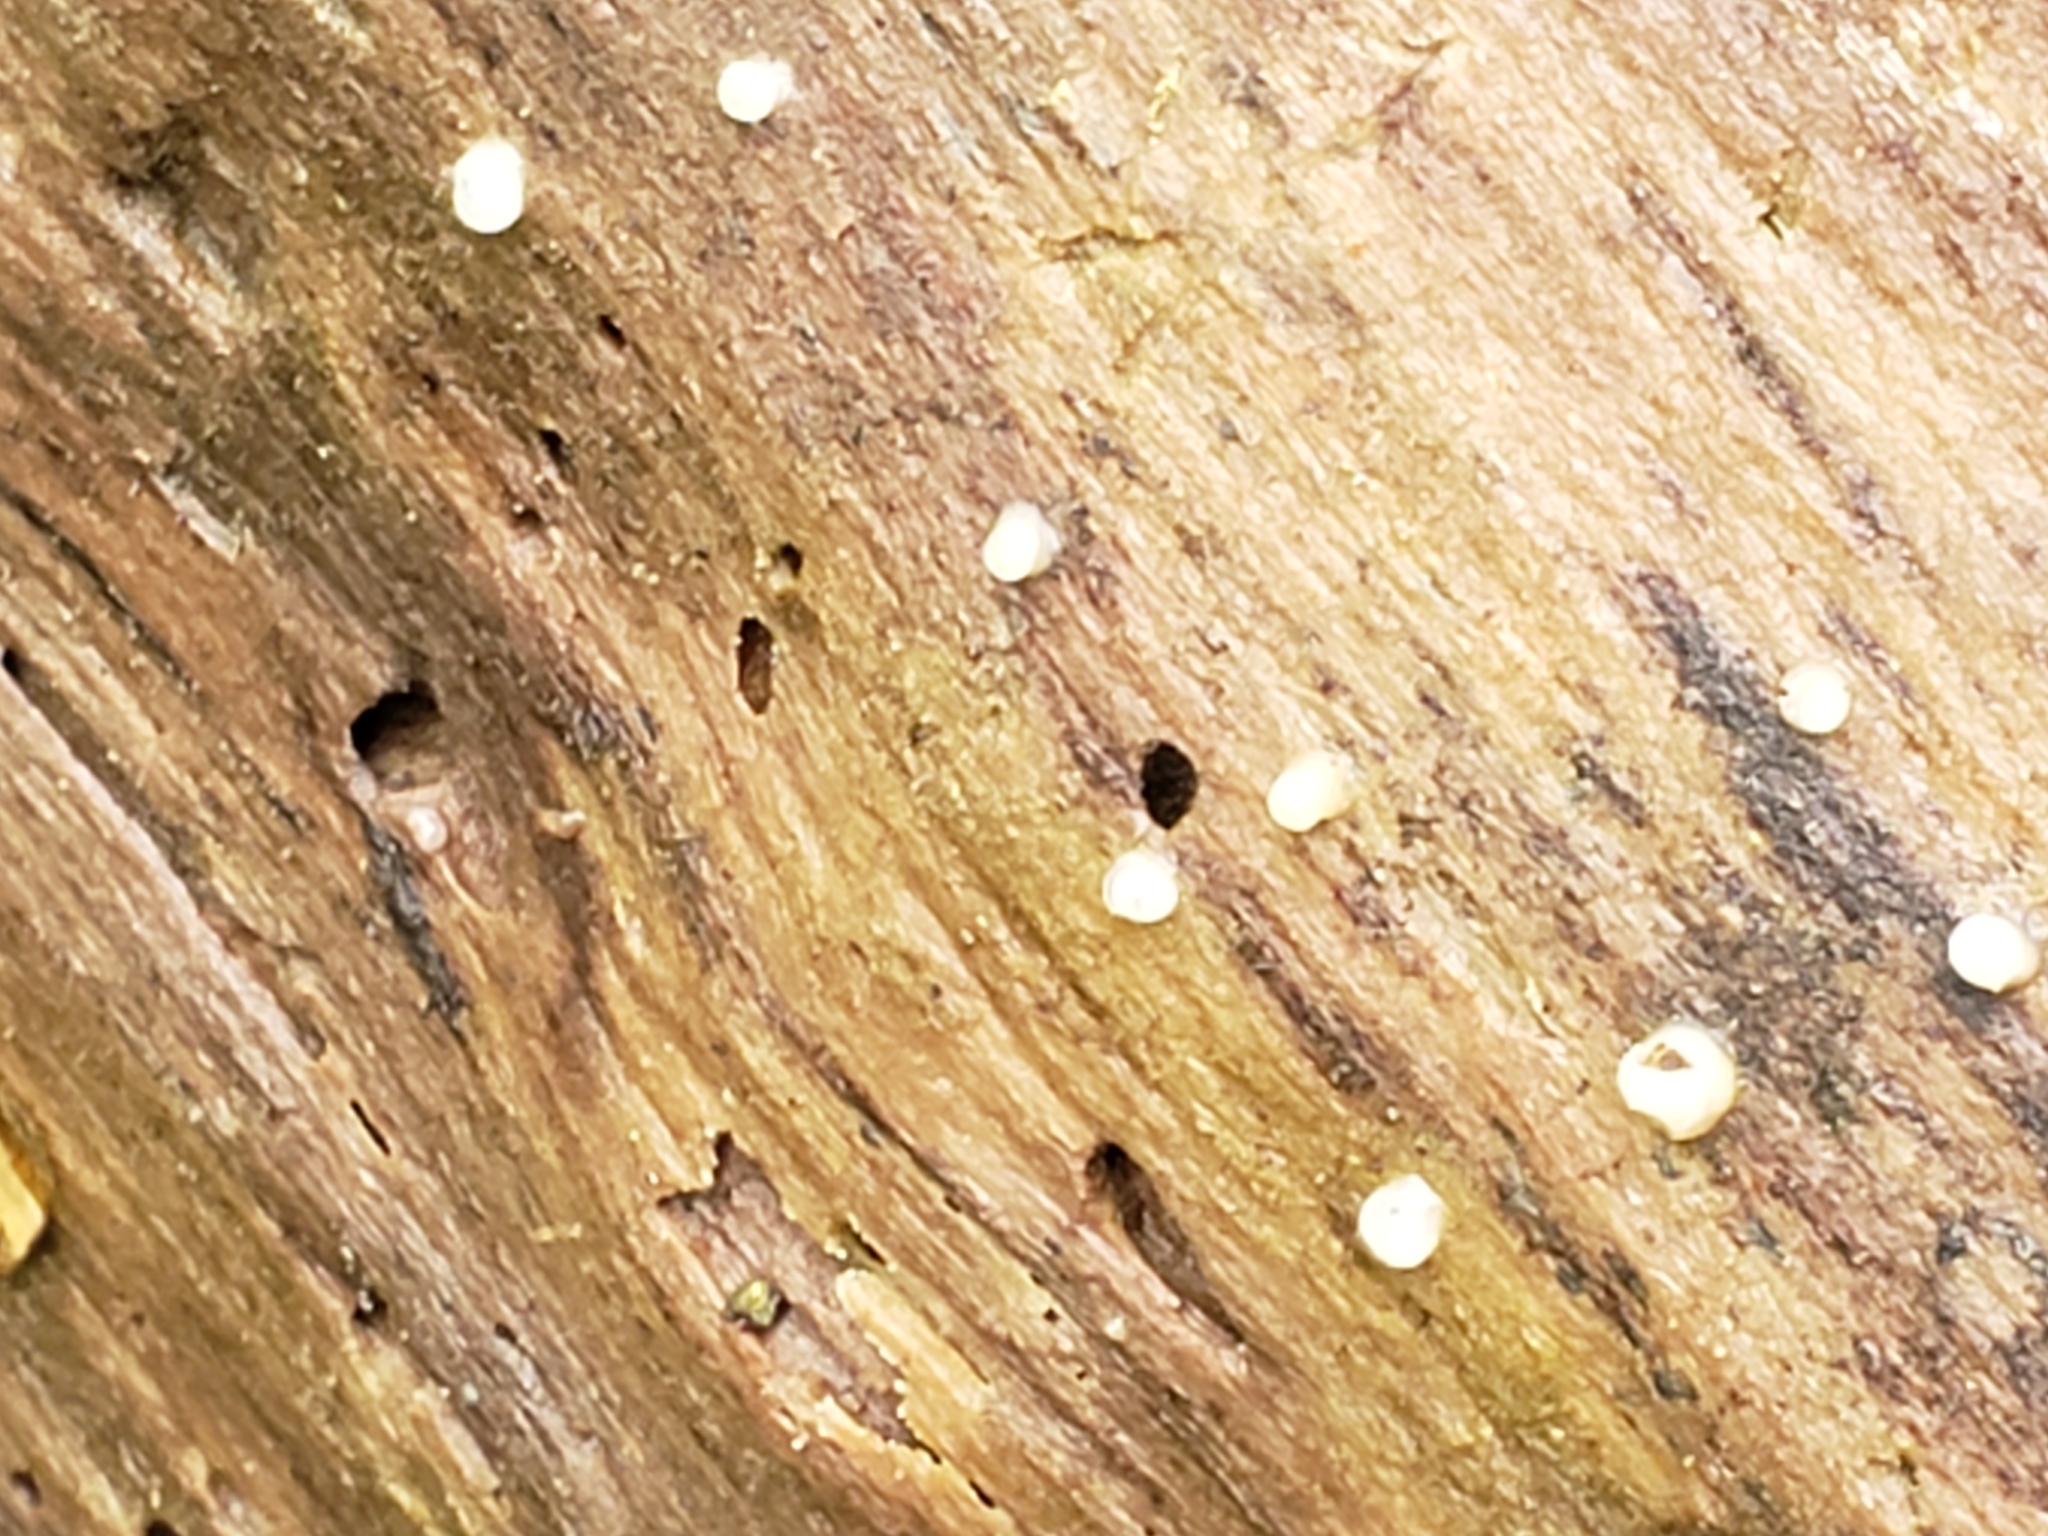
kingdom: Fungi
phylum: Basidiomycota
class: Atractiellomycetes
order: Atractiellales
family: Phleogenaceae
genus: Helicogloea
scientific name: Helicogloea compressa
